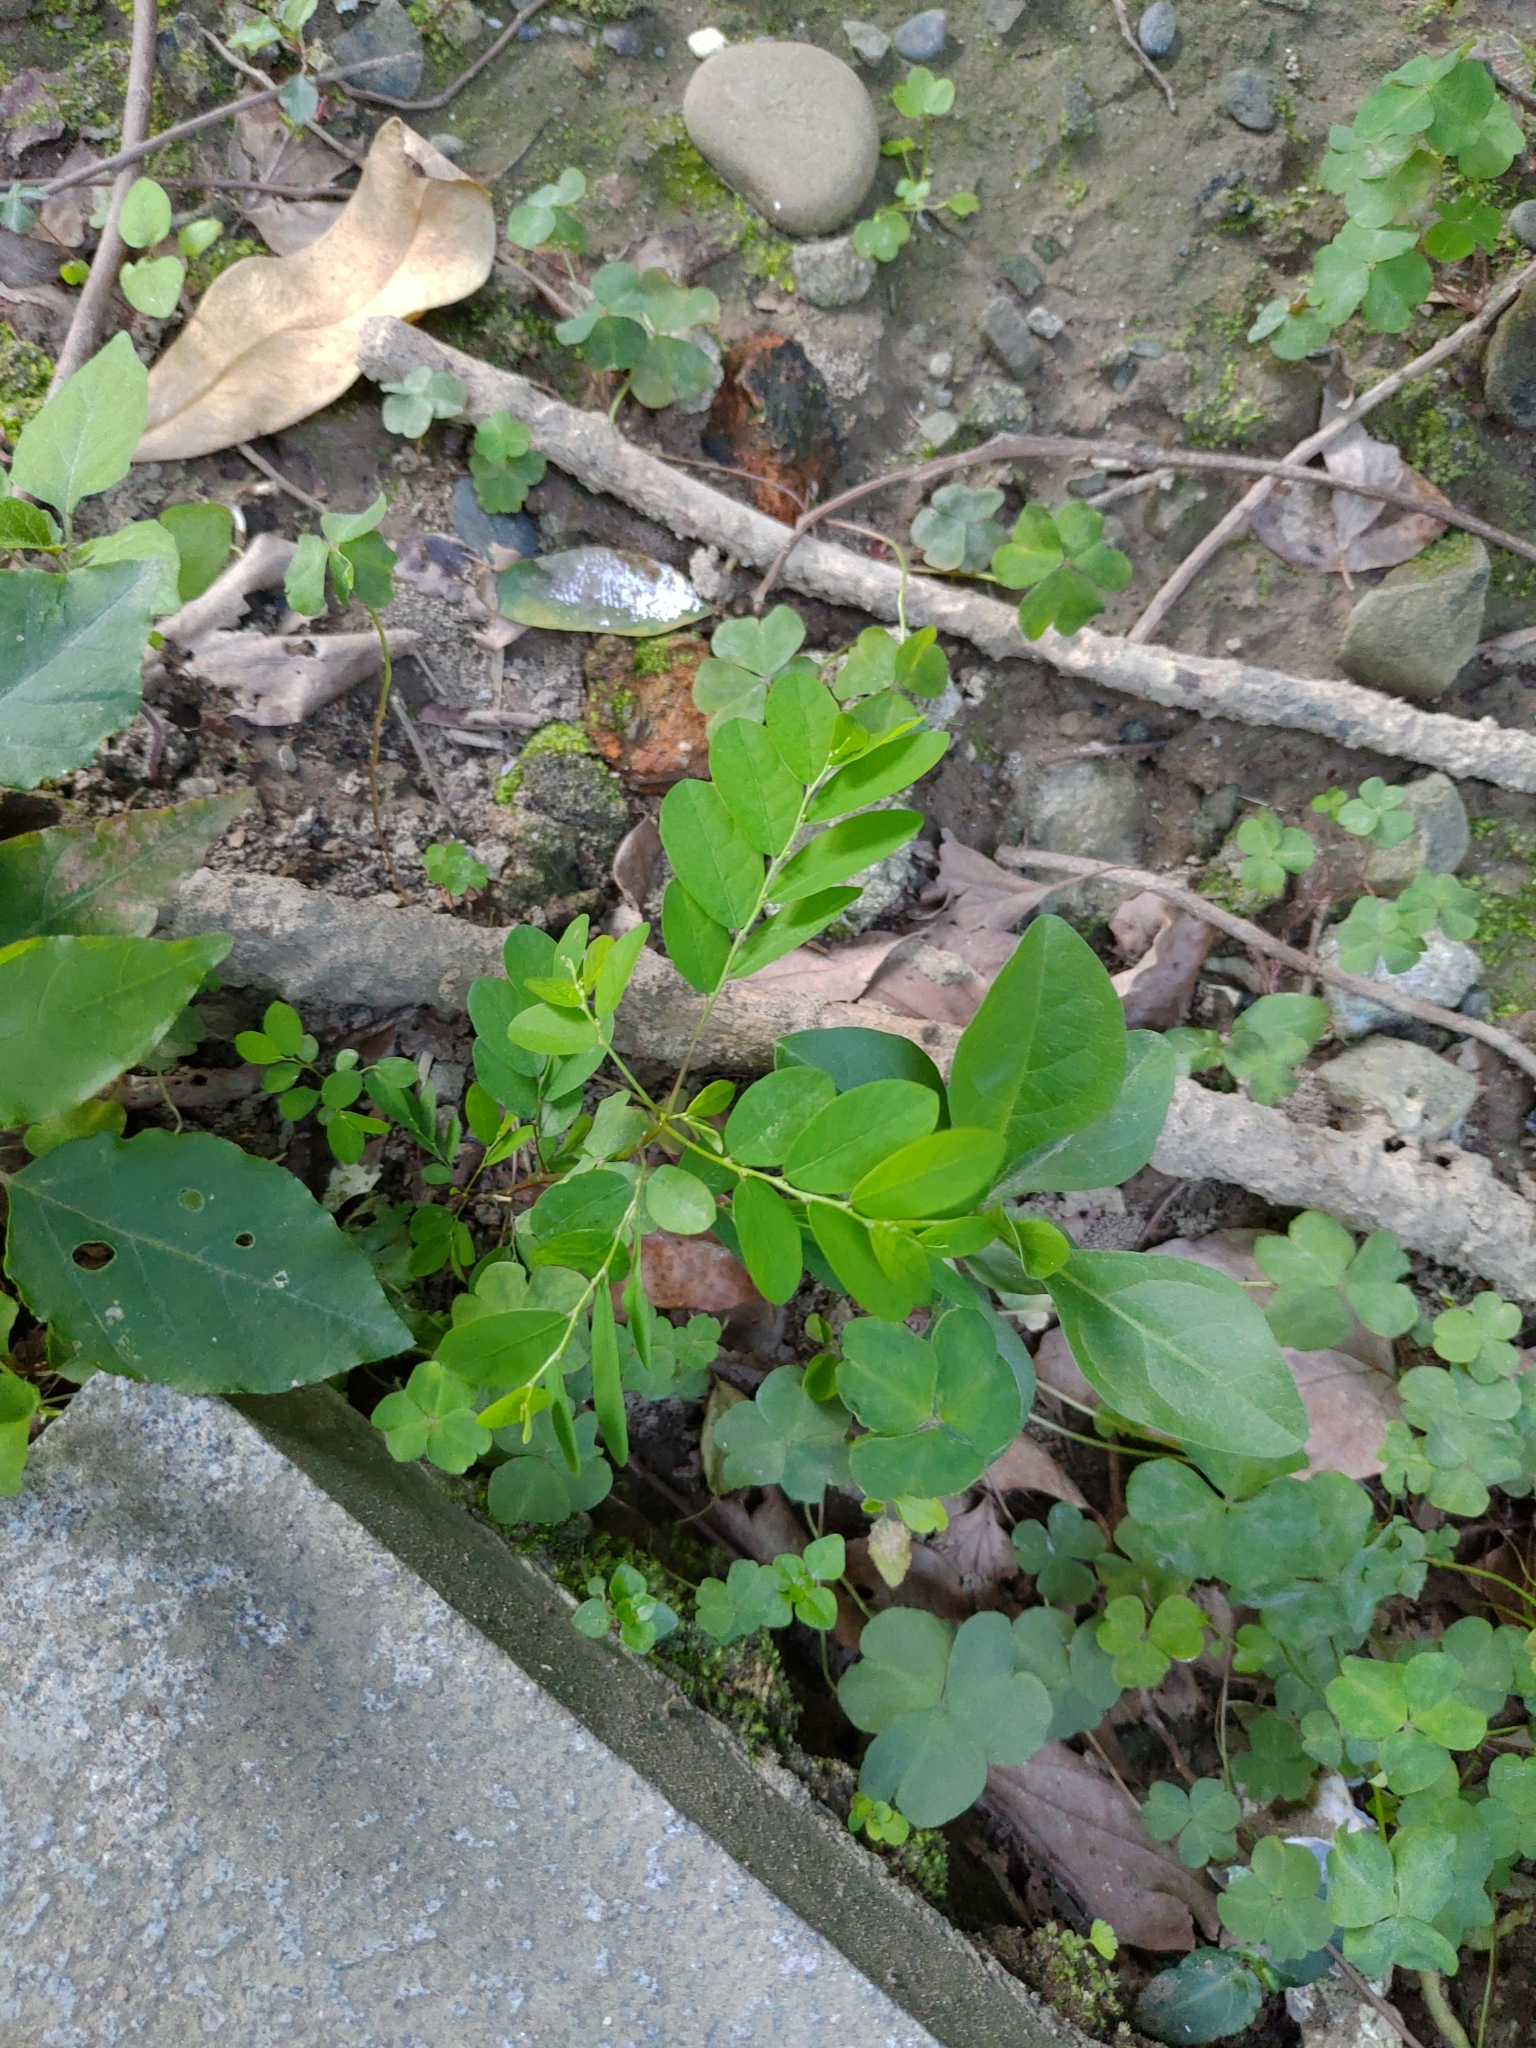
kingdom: Plantae
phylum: Tracheophyta
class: Magnoliopsida
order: Malpighiales
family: Phyllanthaceae
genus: Phyllanthus
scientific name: Phyllanthus tenellus
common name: Mascarene island leaf-flower
